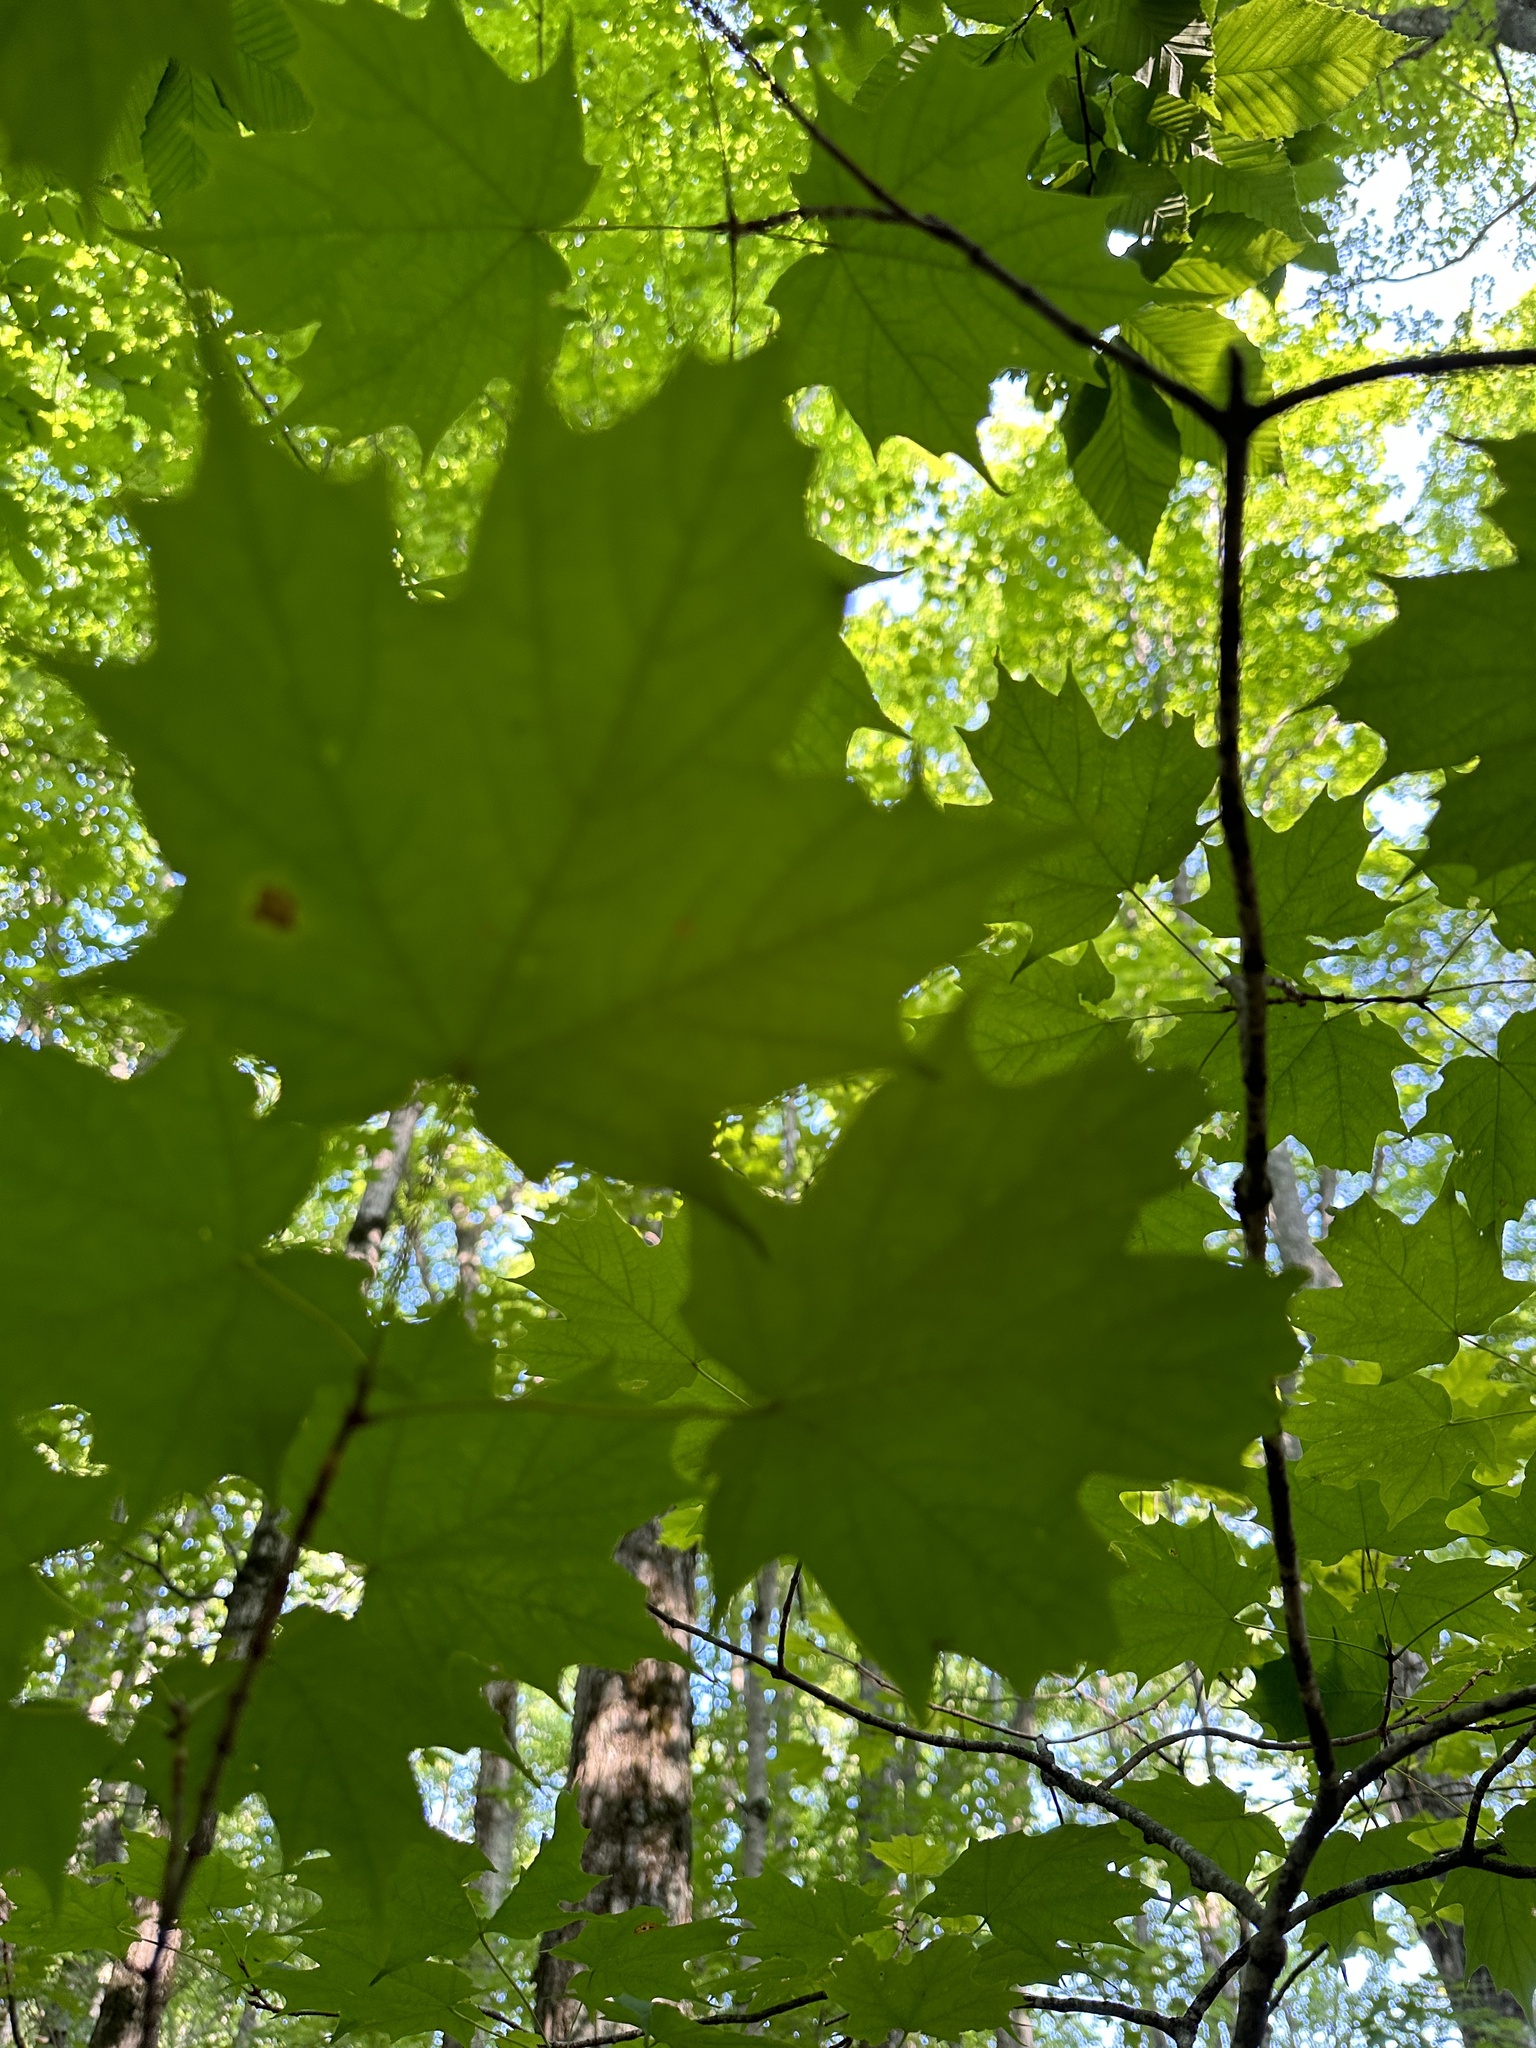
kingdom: Plantae
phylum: Tracheophyta
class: Magnoliopsida
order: Sapindales
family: Sapindaceae
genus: Acer
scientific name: Acer saccharum
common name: Sugar maple
